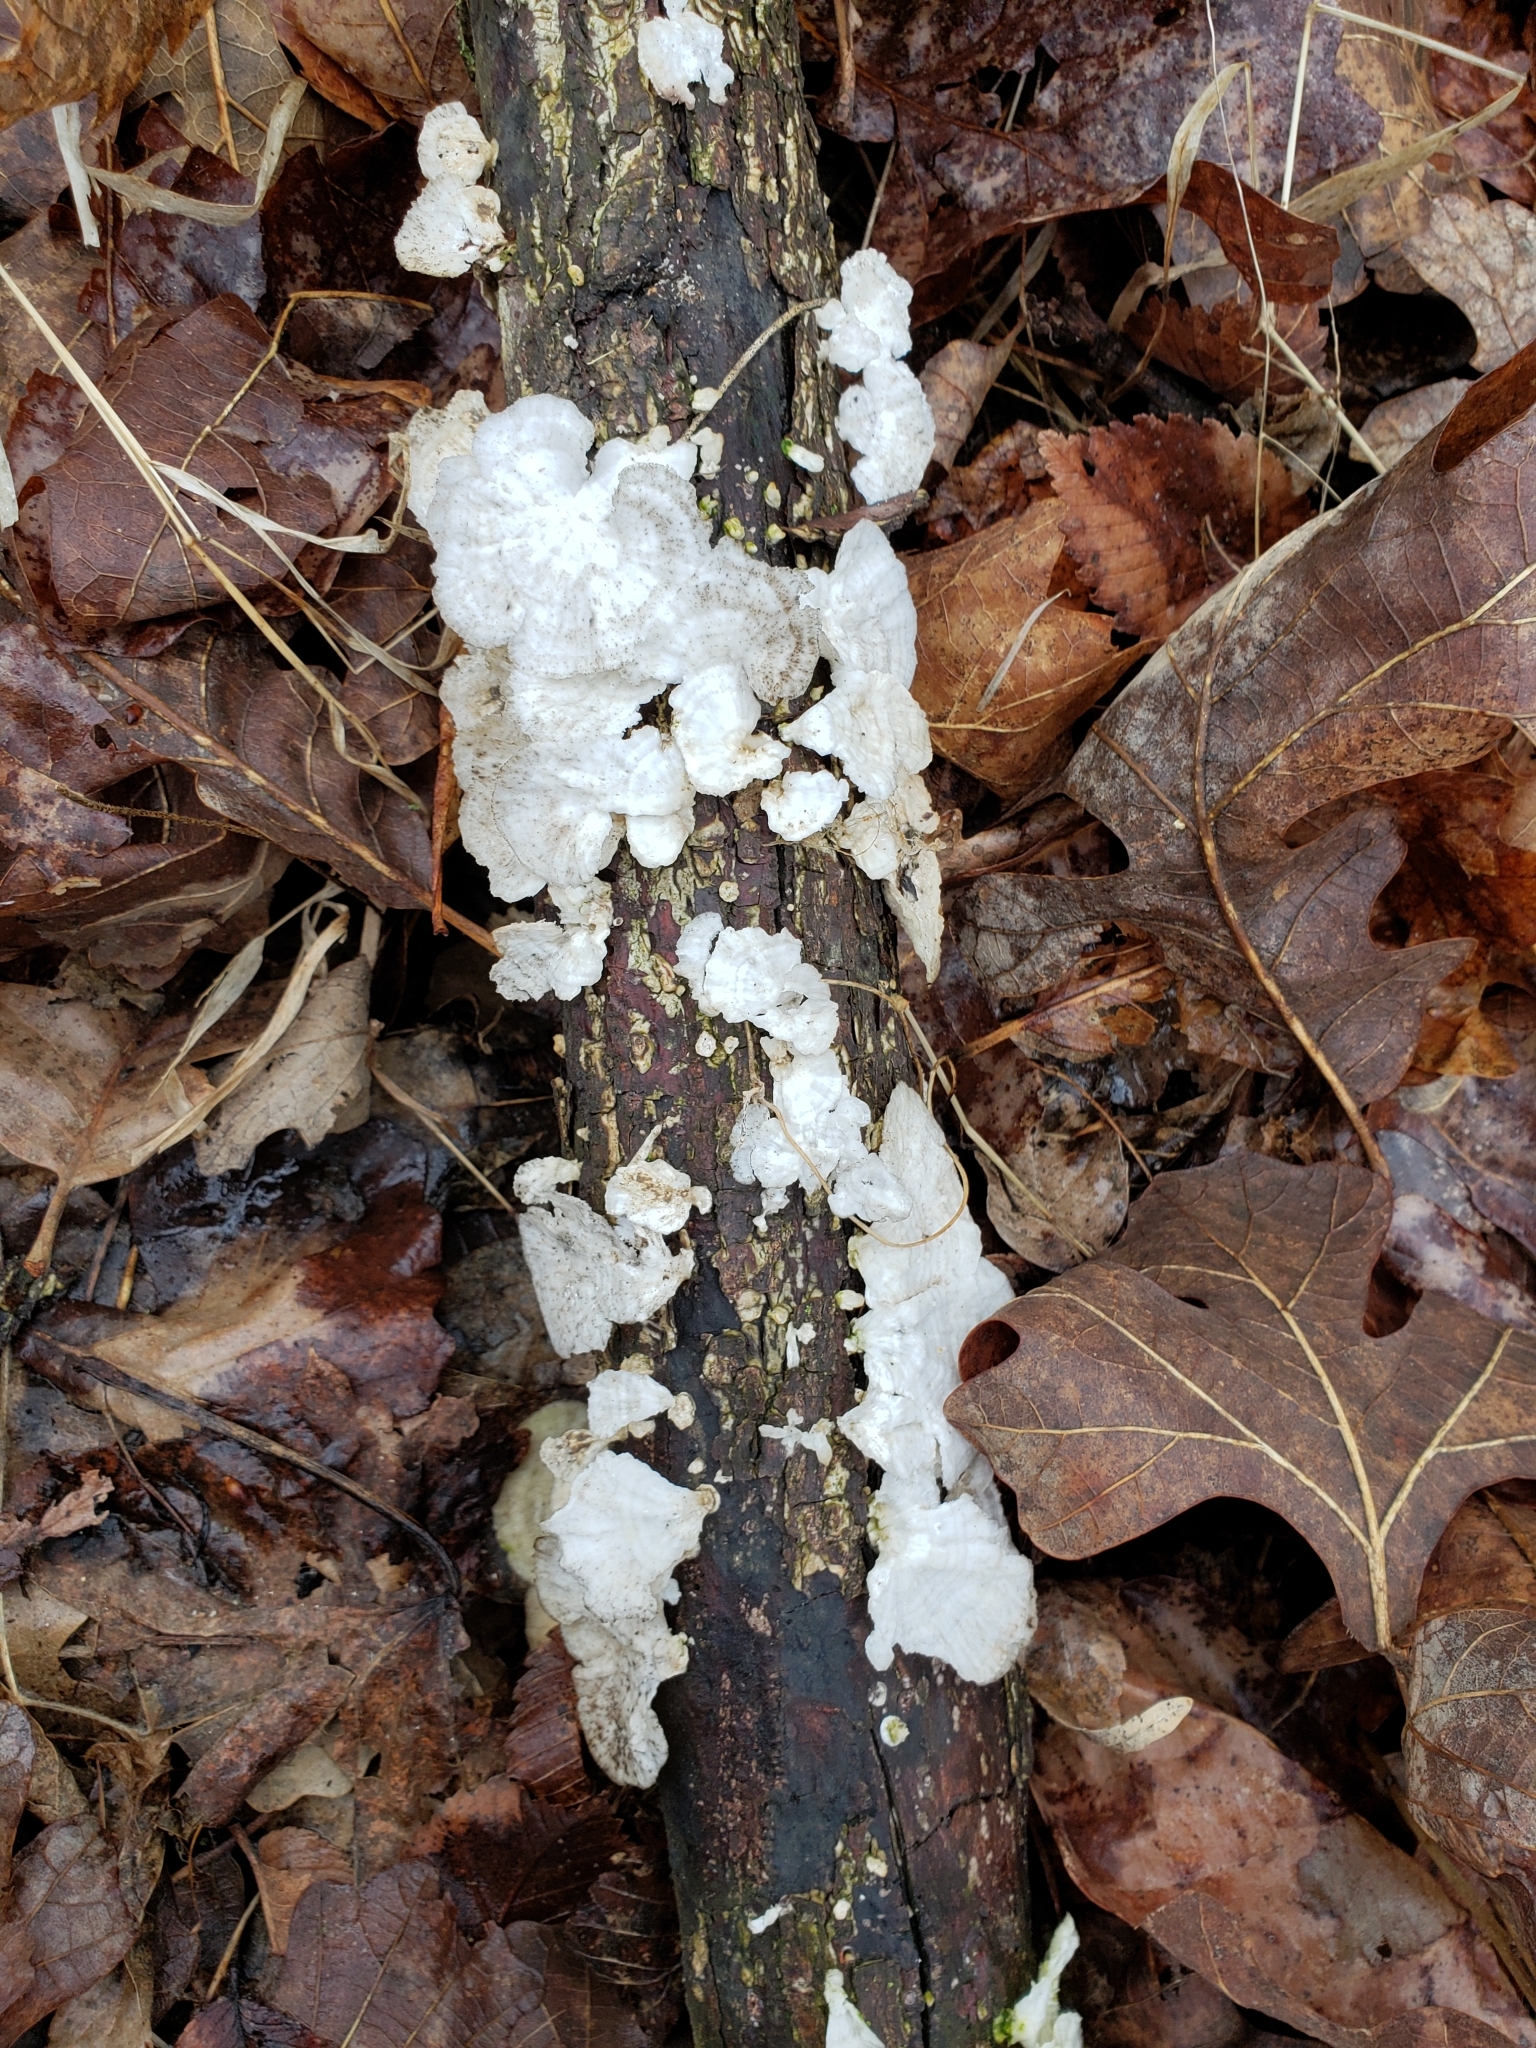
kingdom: Fungi
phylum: Basidiomycota
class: Agaricomycetes
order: Polyporales
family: Polyporaceae
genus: Poronidulus
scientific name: Poronidulus conchifer
